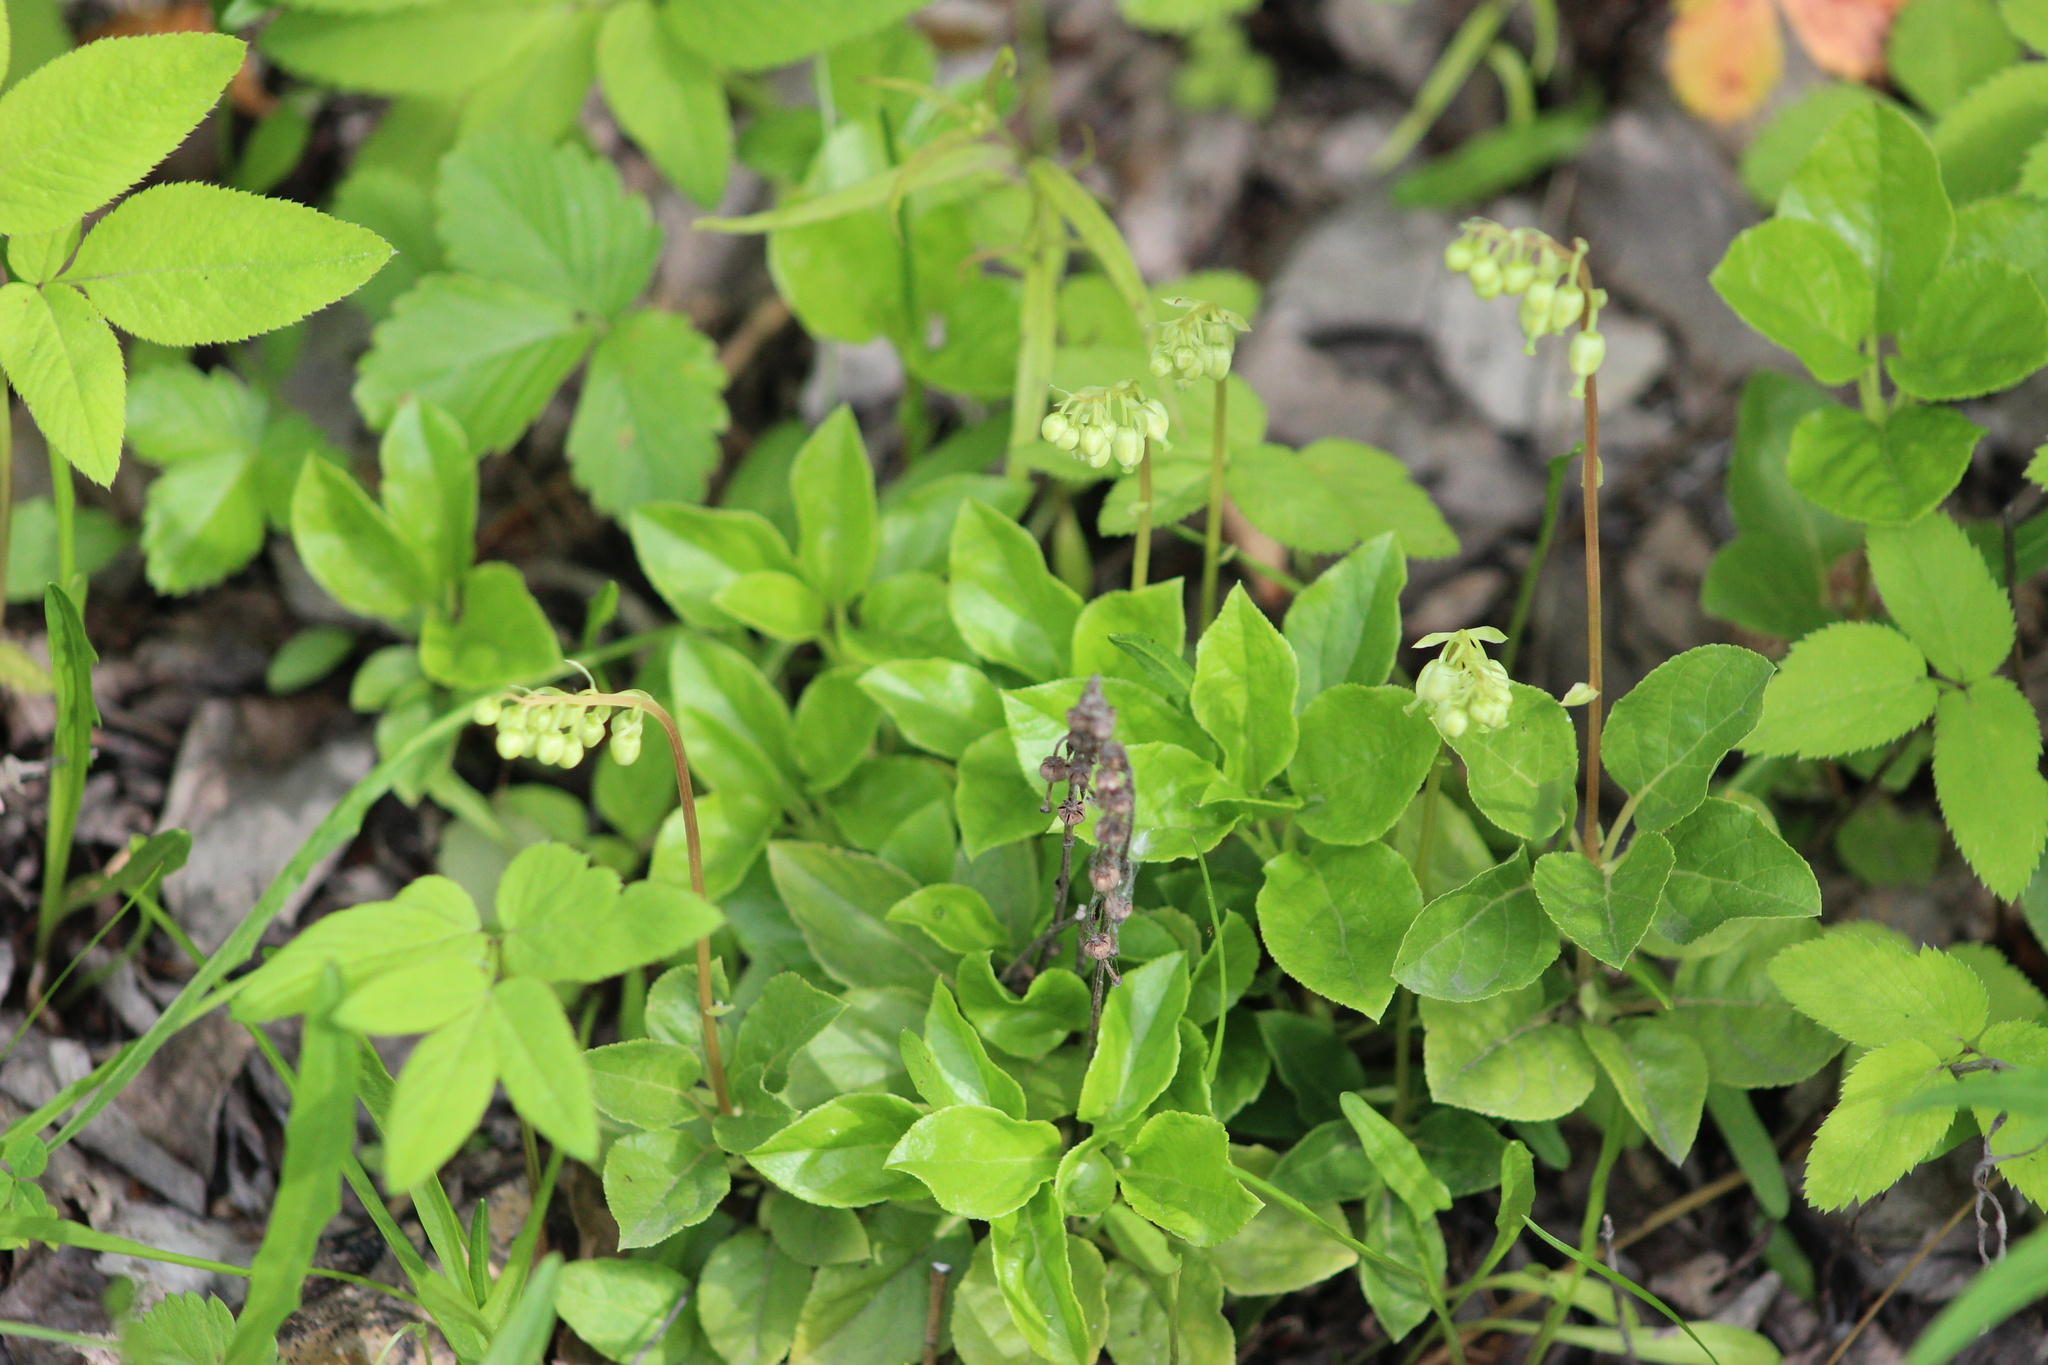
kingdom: Plantae
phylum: Tracheophyta
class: Magnoliopsida
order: Ericales
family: Ericaceae
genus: Orthilia
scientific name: Orthilia secunda
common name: One-sided orthilia
